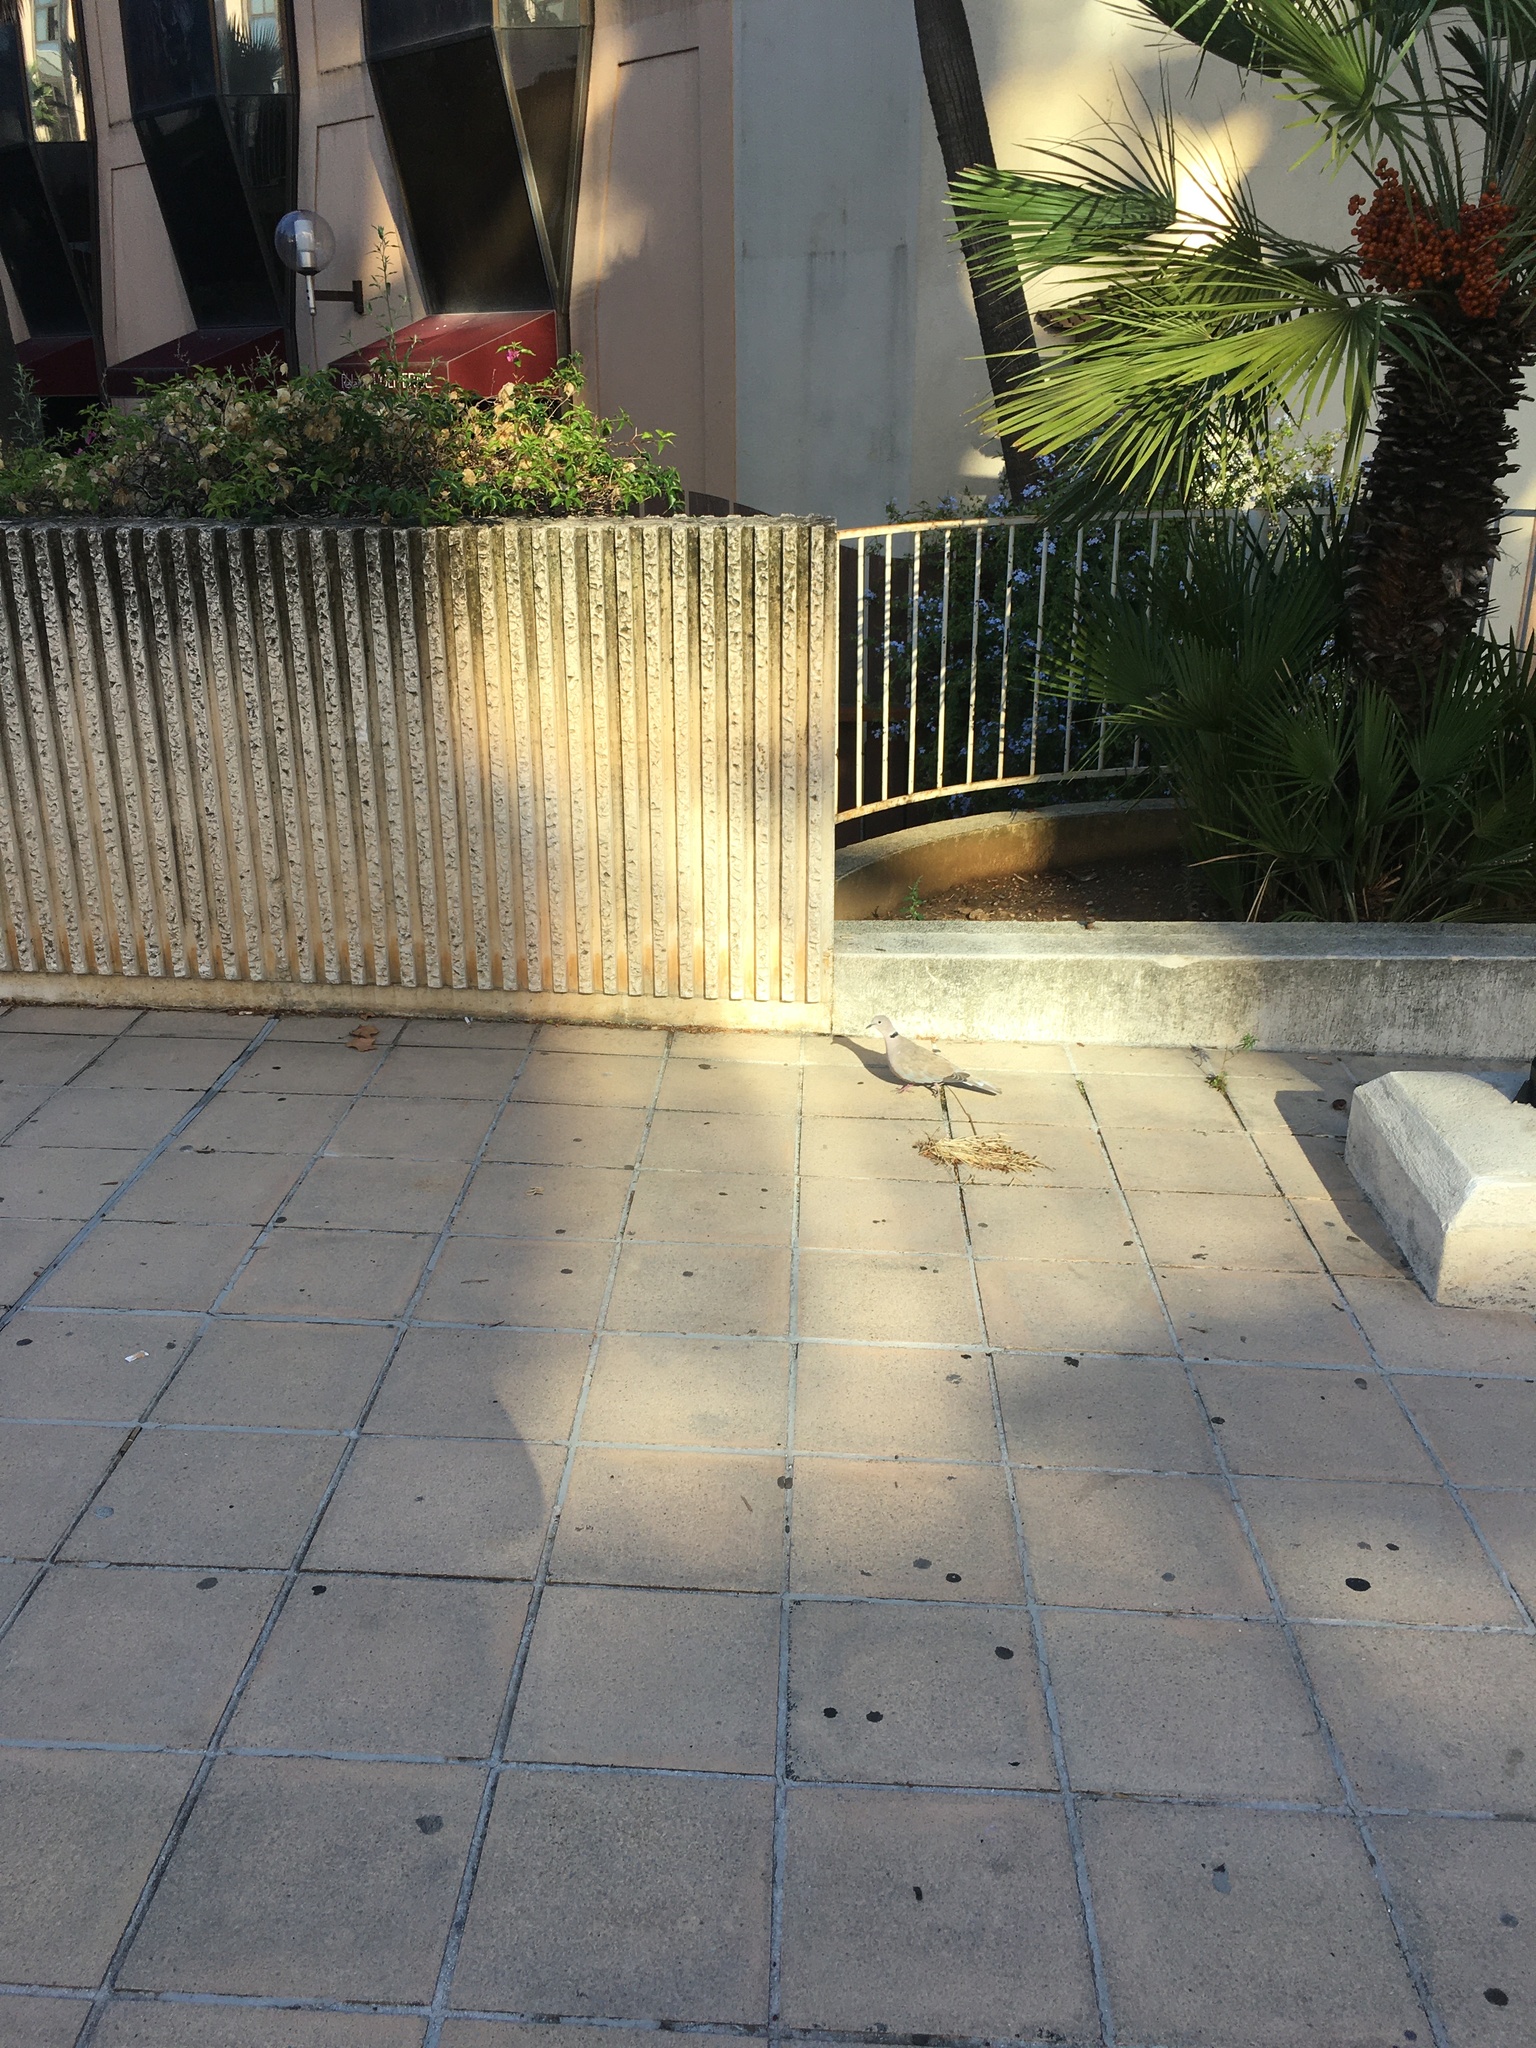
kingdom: Animalia
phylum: Chordata
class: Aves
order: Columbiformes
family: Columbidae
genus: Streptopelia
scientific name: Streptopelia decaocto
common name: Eurasian collared dove
